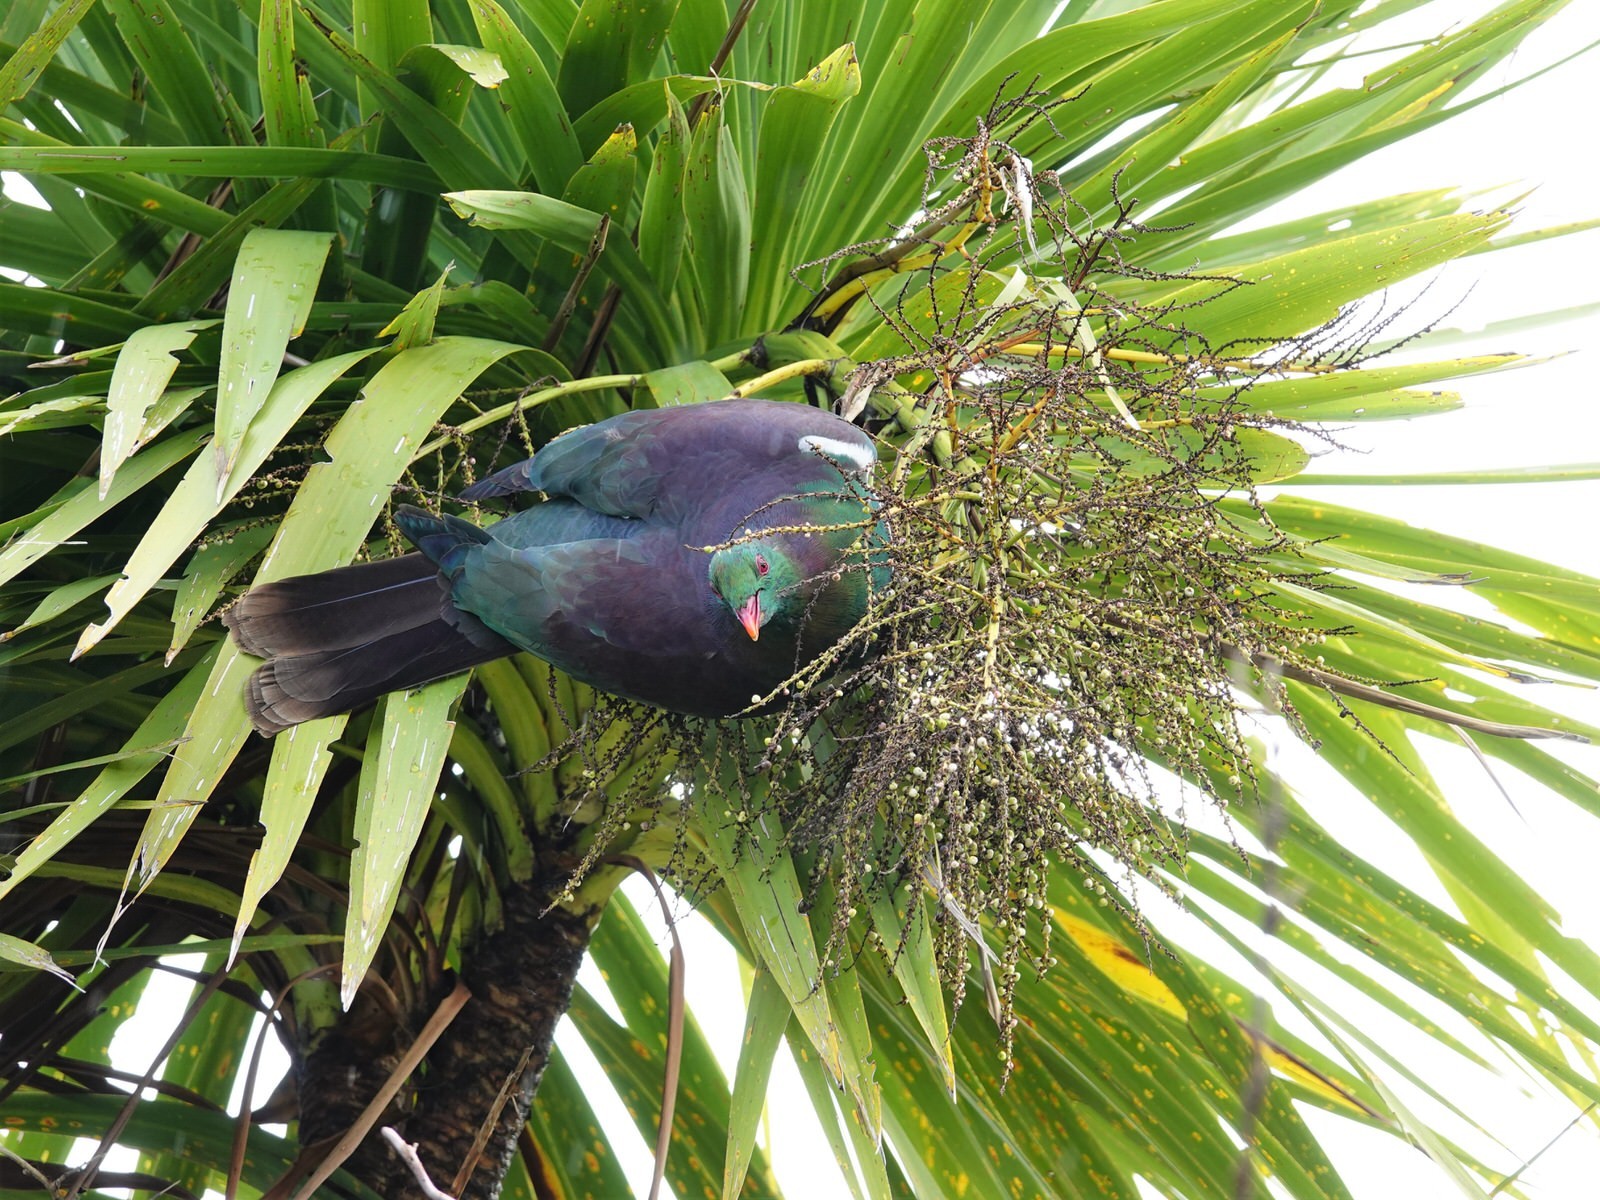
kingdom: Animalia
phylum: Chordata
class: Aves
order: Columbiformes
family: Columbidae
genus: Hemiphaga
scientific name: Hemiphaga novaeseelandiae
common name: New zealand pigeon
